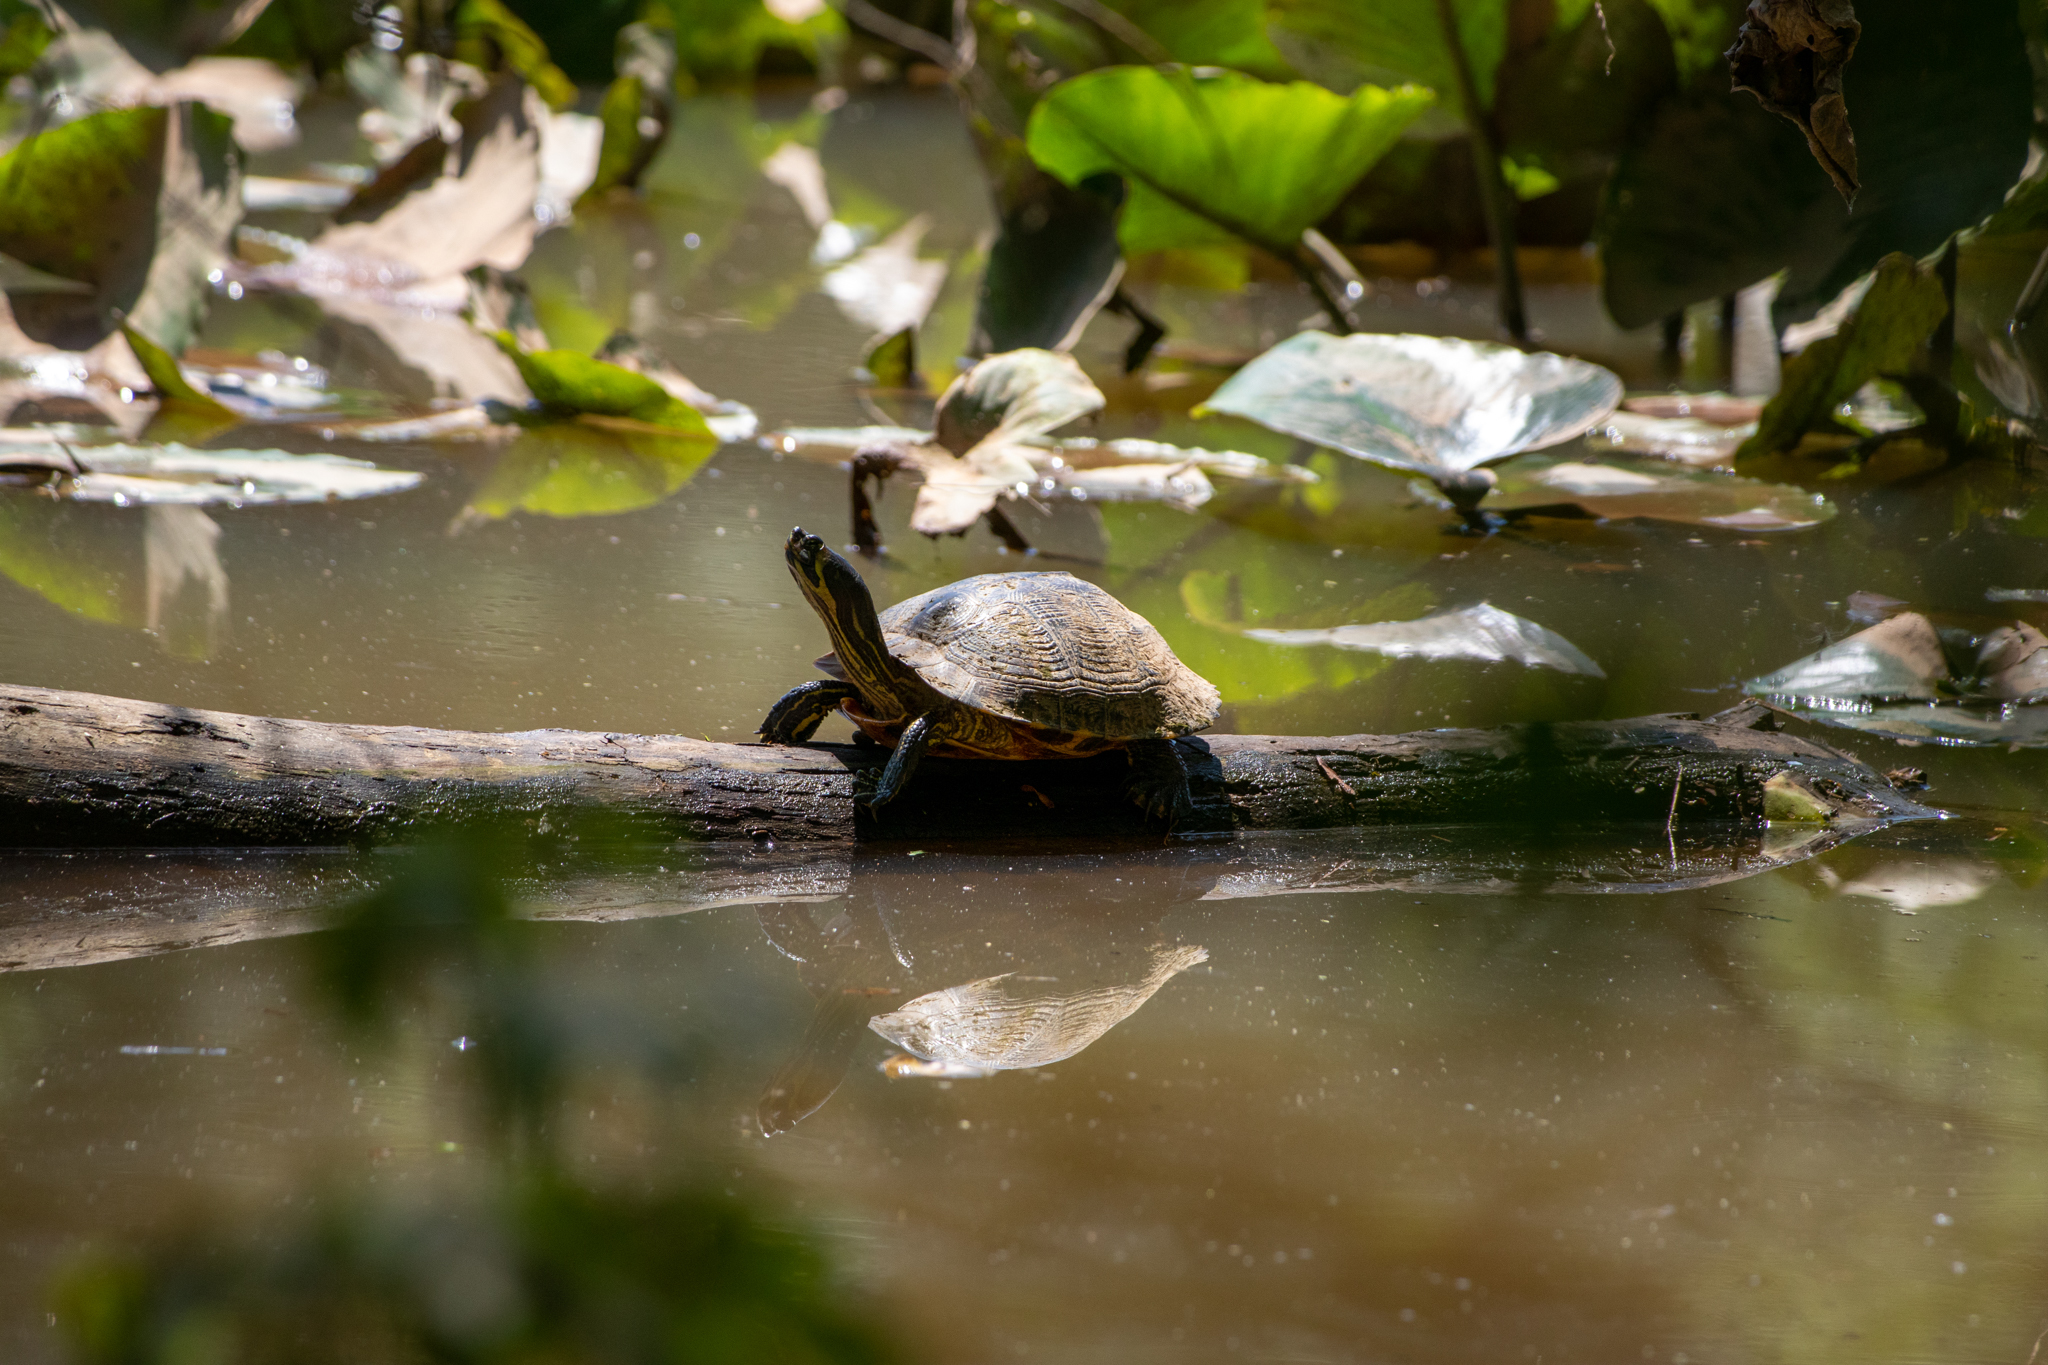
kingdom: Animalia
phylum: Chordata
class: Testudines
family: Emydidae
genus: Trachemys
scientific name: Trachemys scripta
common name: Slider
